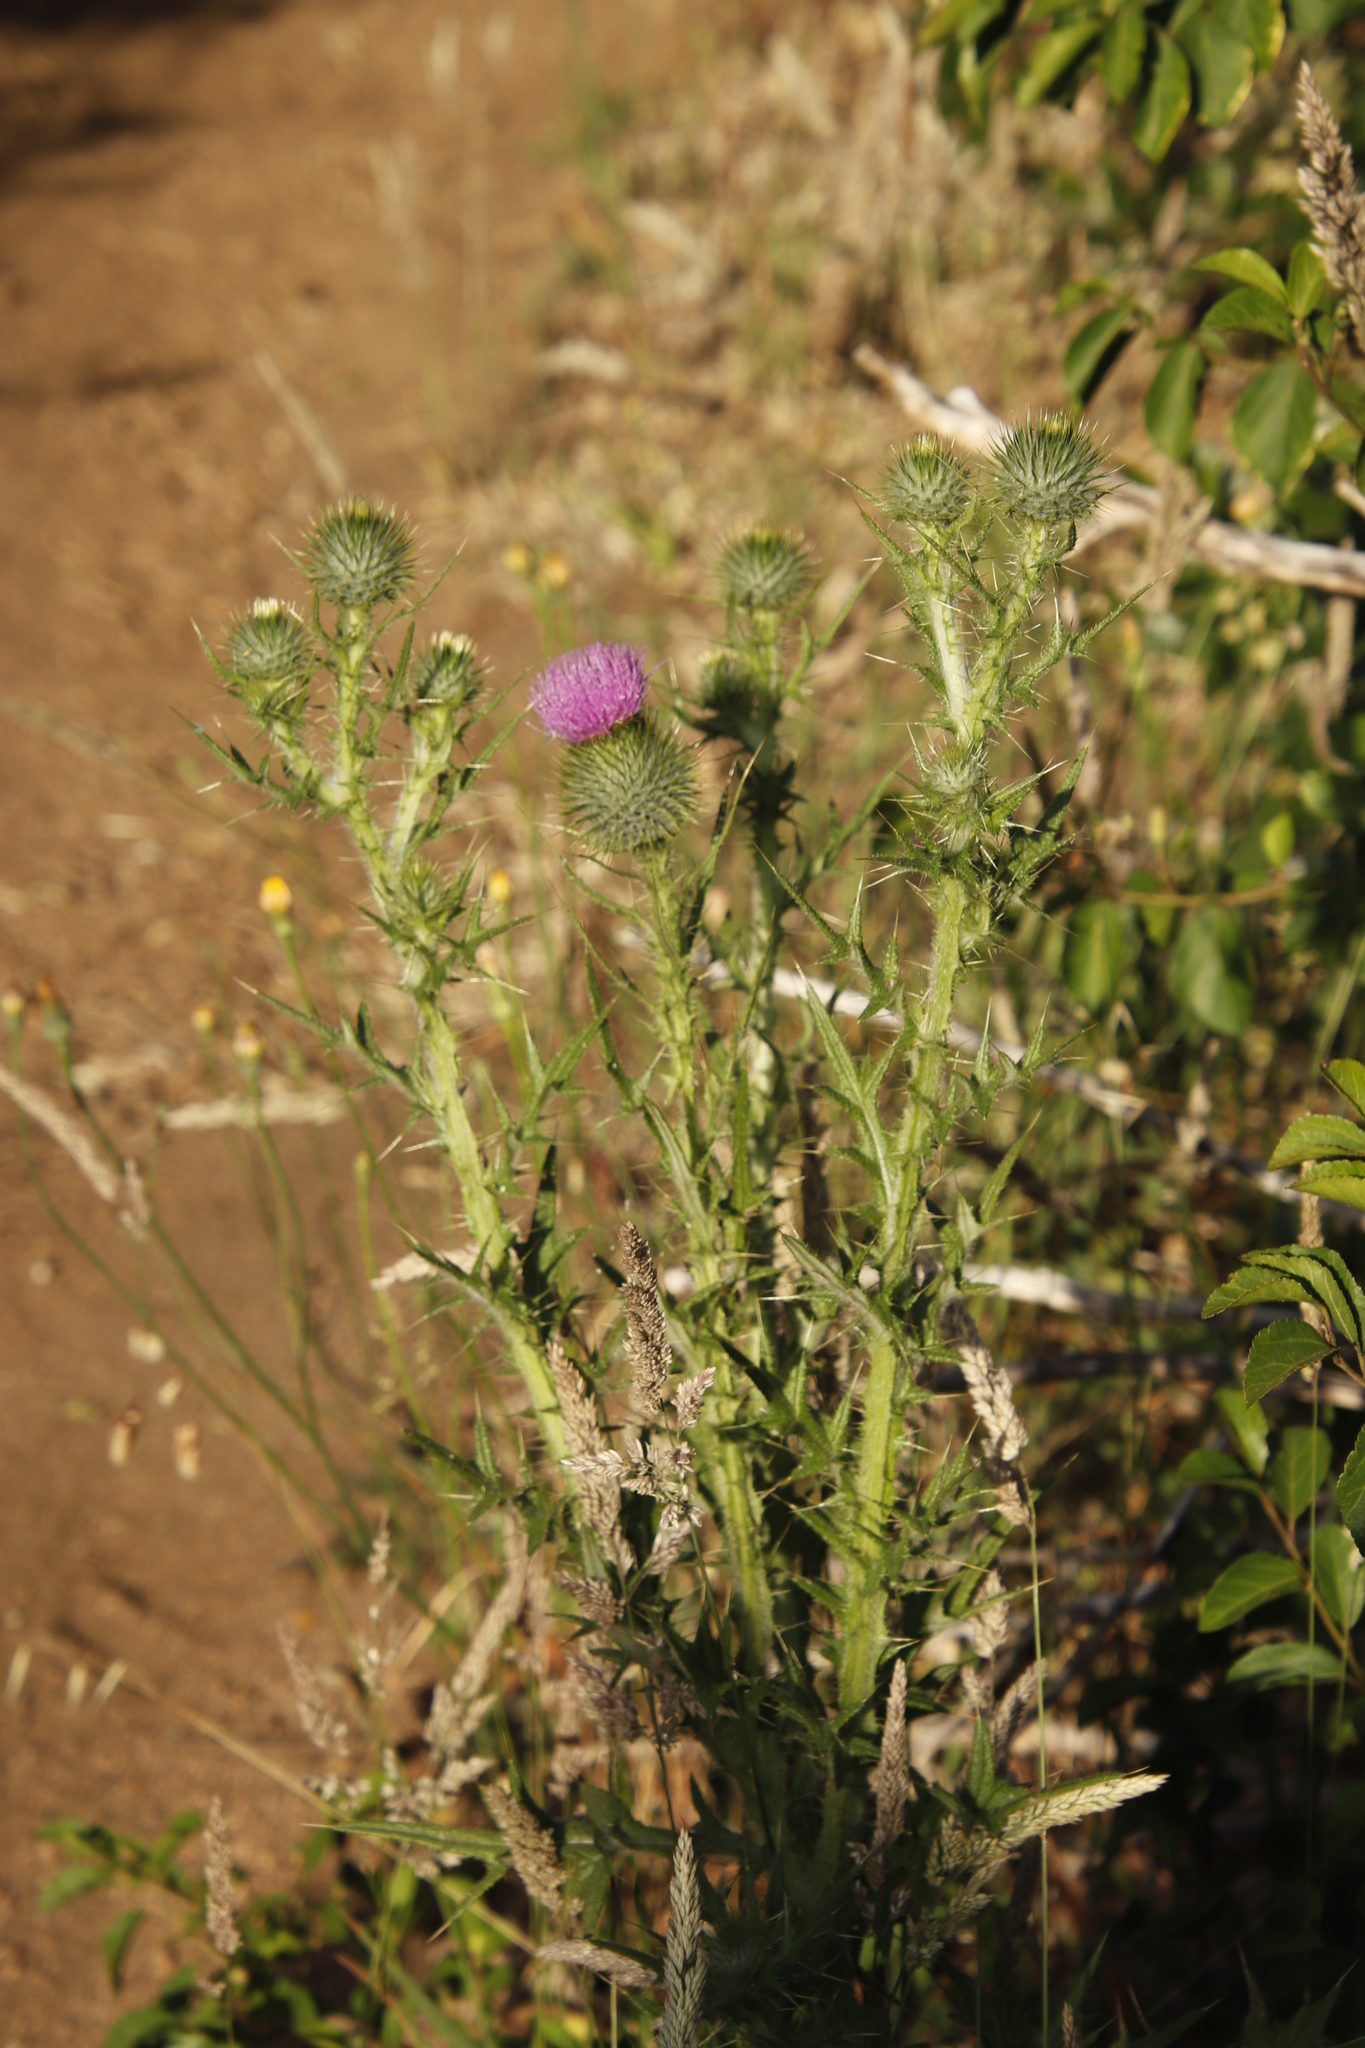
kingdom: Plantae
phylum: Tracheophyta
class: Magnoliopsida
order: Asterales
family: Asteraceae
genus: Cirsium
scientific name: Cirsium vulgare
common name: Bull thistle
